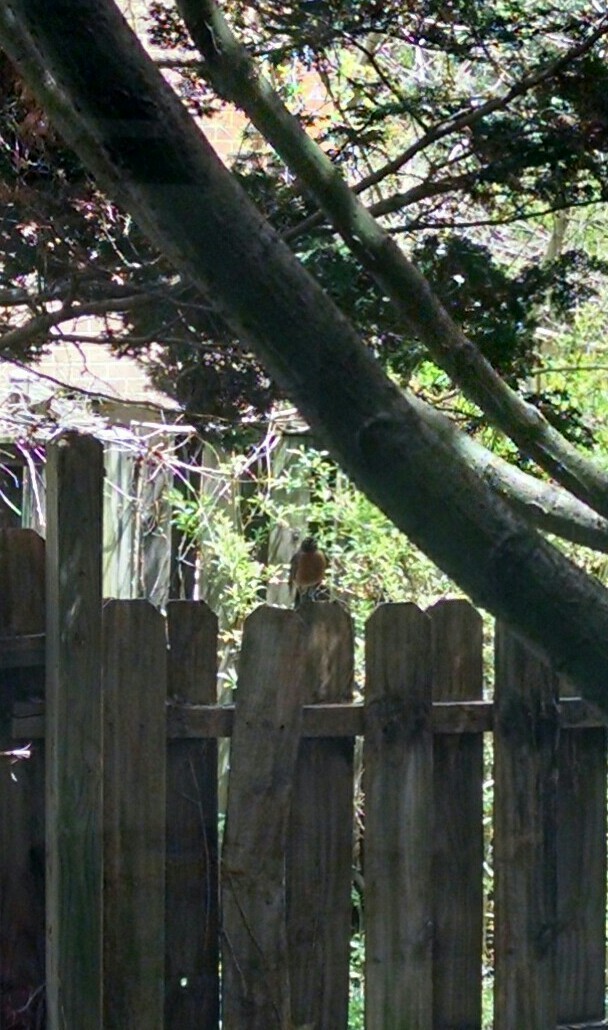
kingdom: Animalia
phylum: Chordata
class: Aves
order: Passeriformes
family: Turdidae
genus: Turdus
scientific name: Turdus migratorius
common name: American robin
